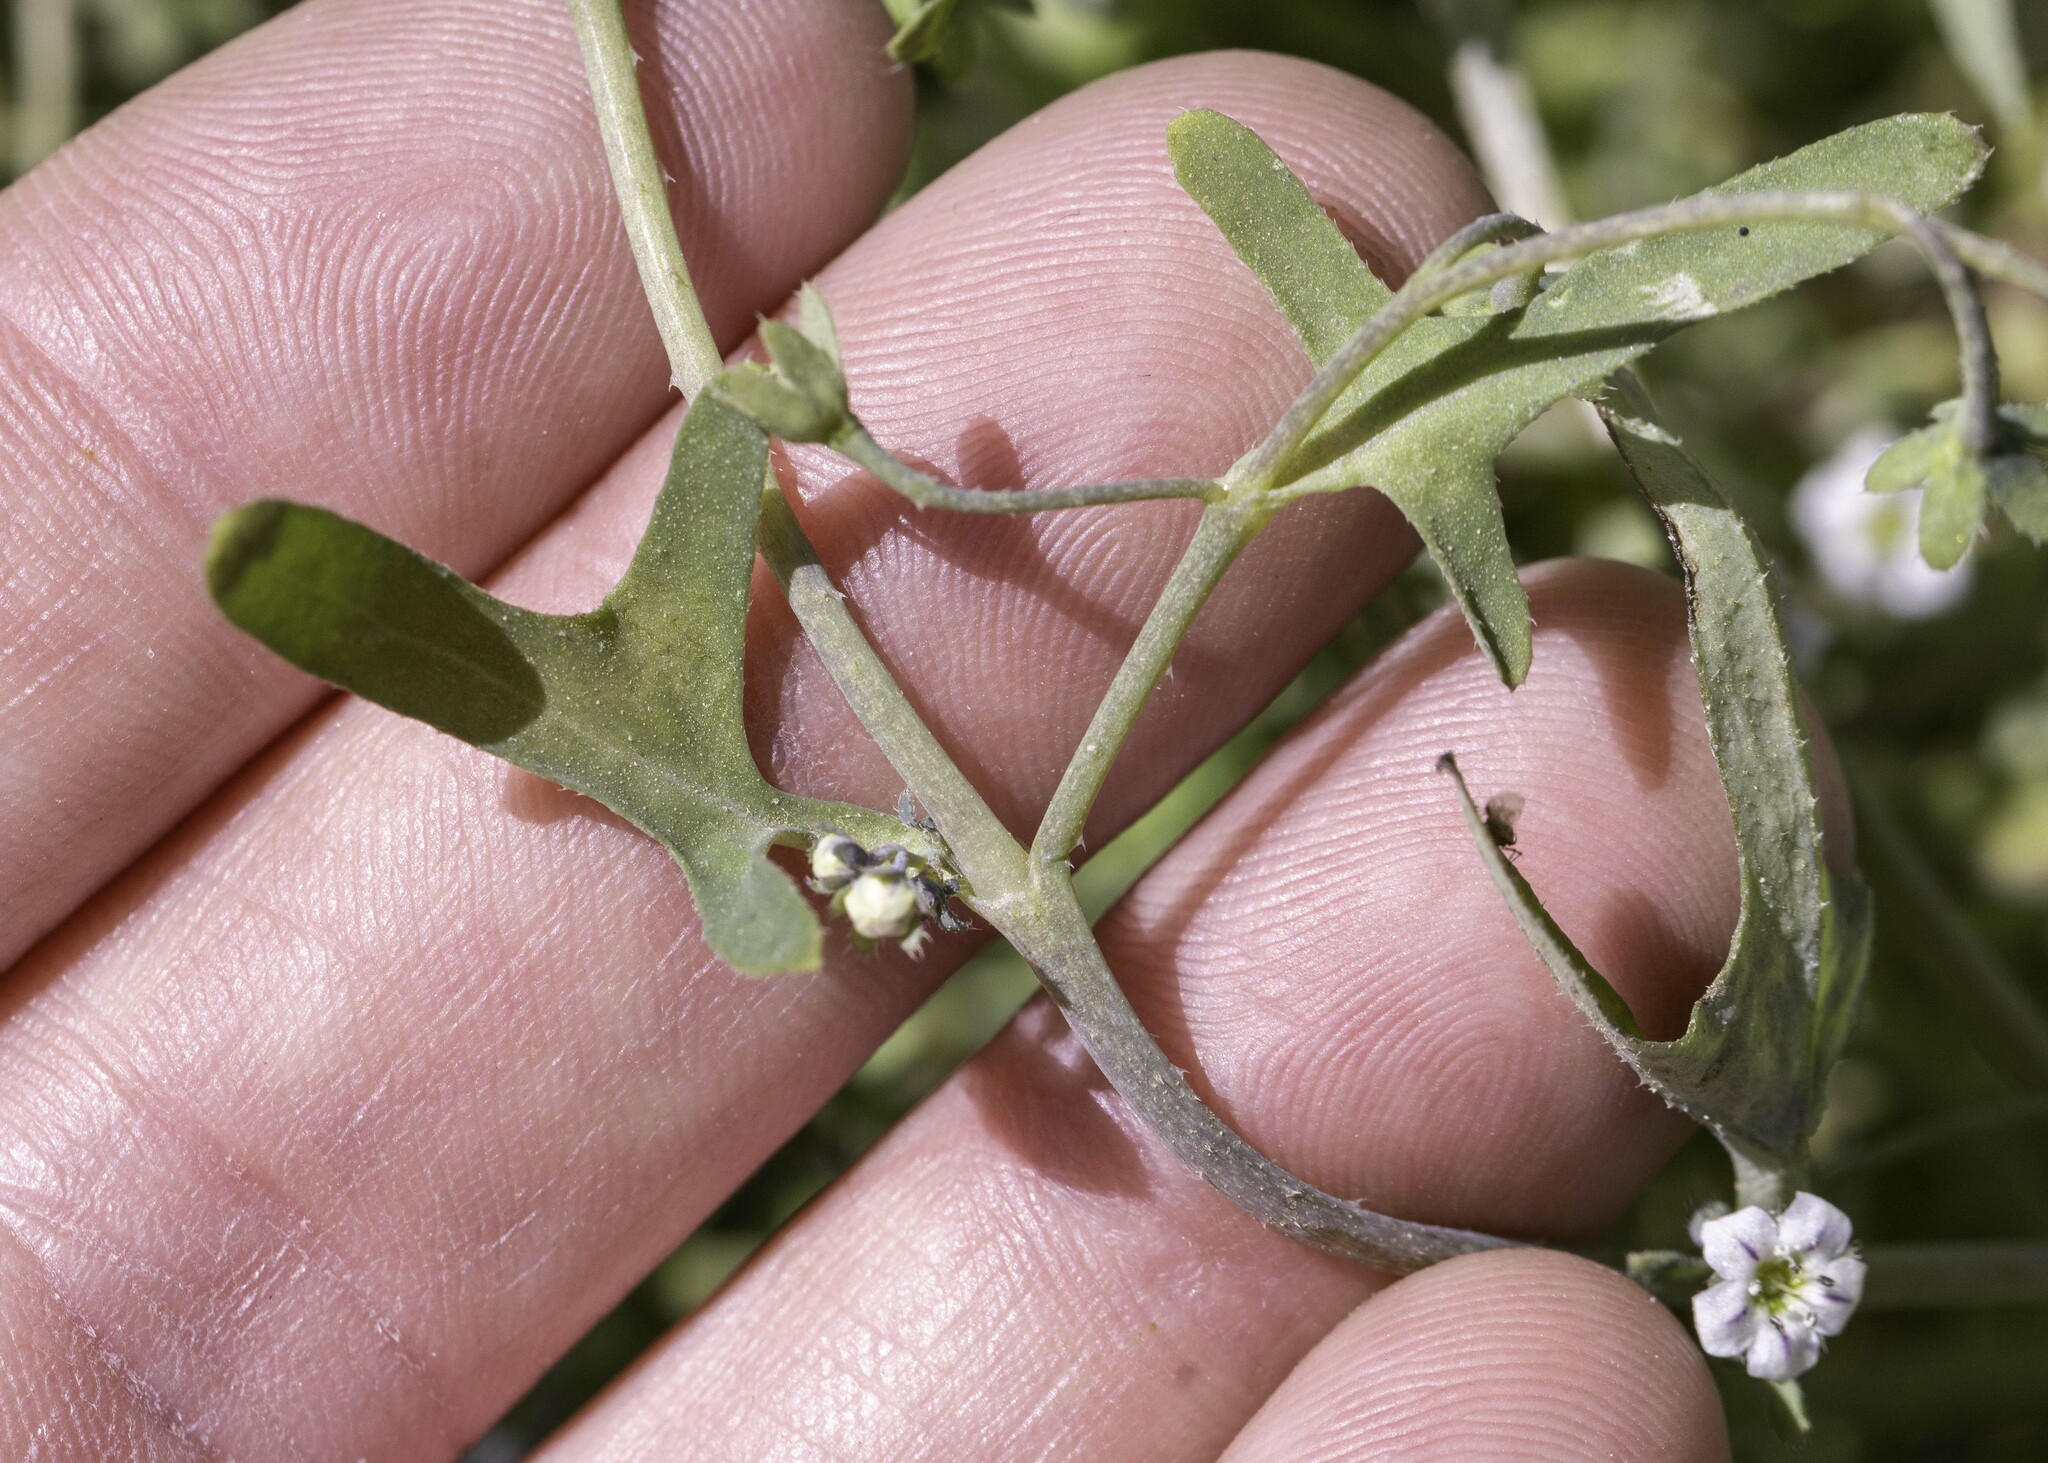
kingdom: Plantae
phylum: Tracheophyta
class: Magnoliopsida
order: Boraginales
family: Hydrophyllaceae
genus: Pholistoma
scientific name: Pholistoma membranaceum
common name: White fiesta-flower
